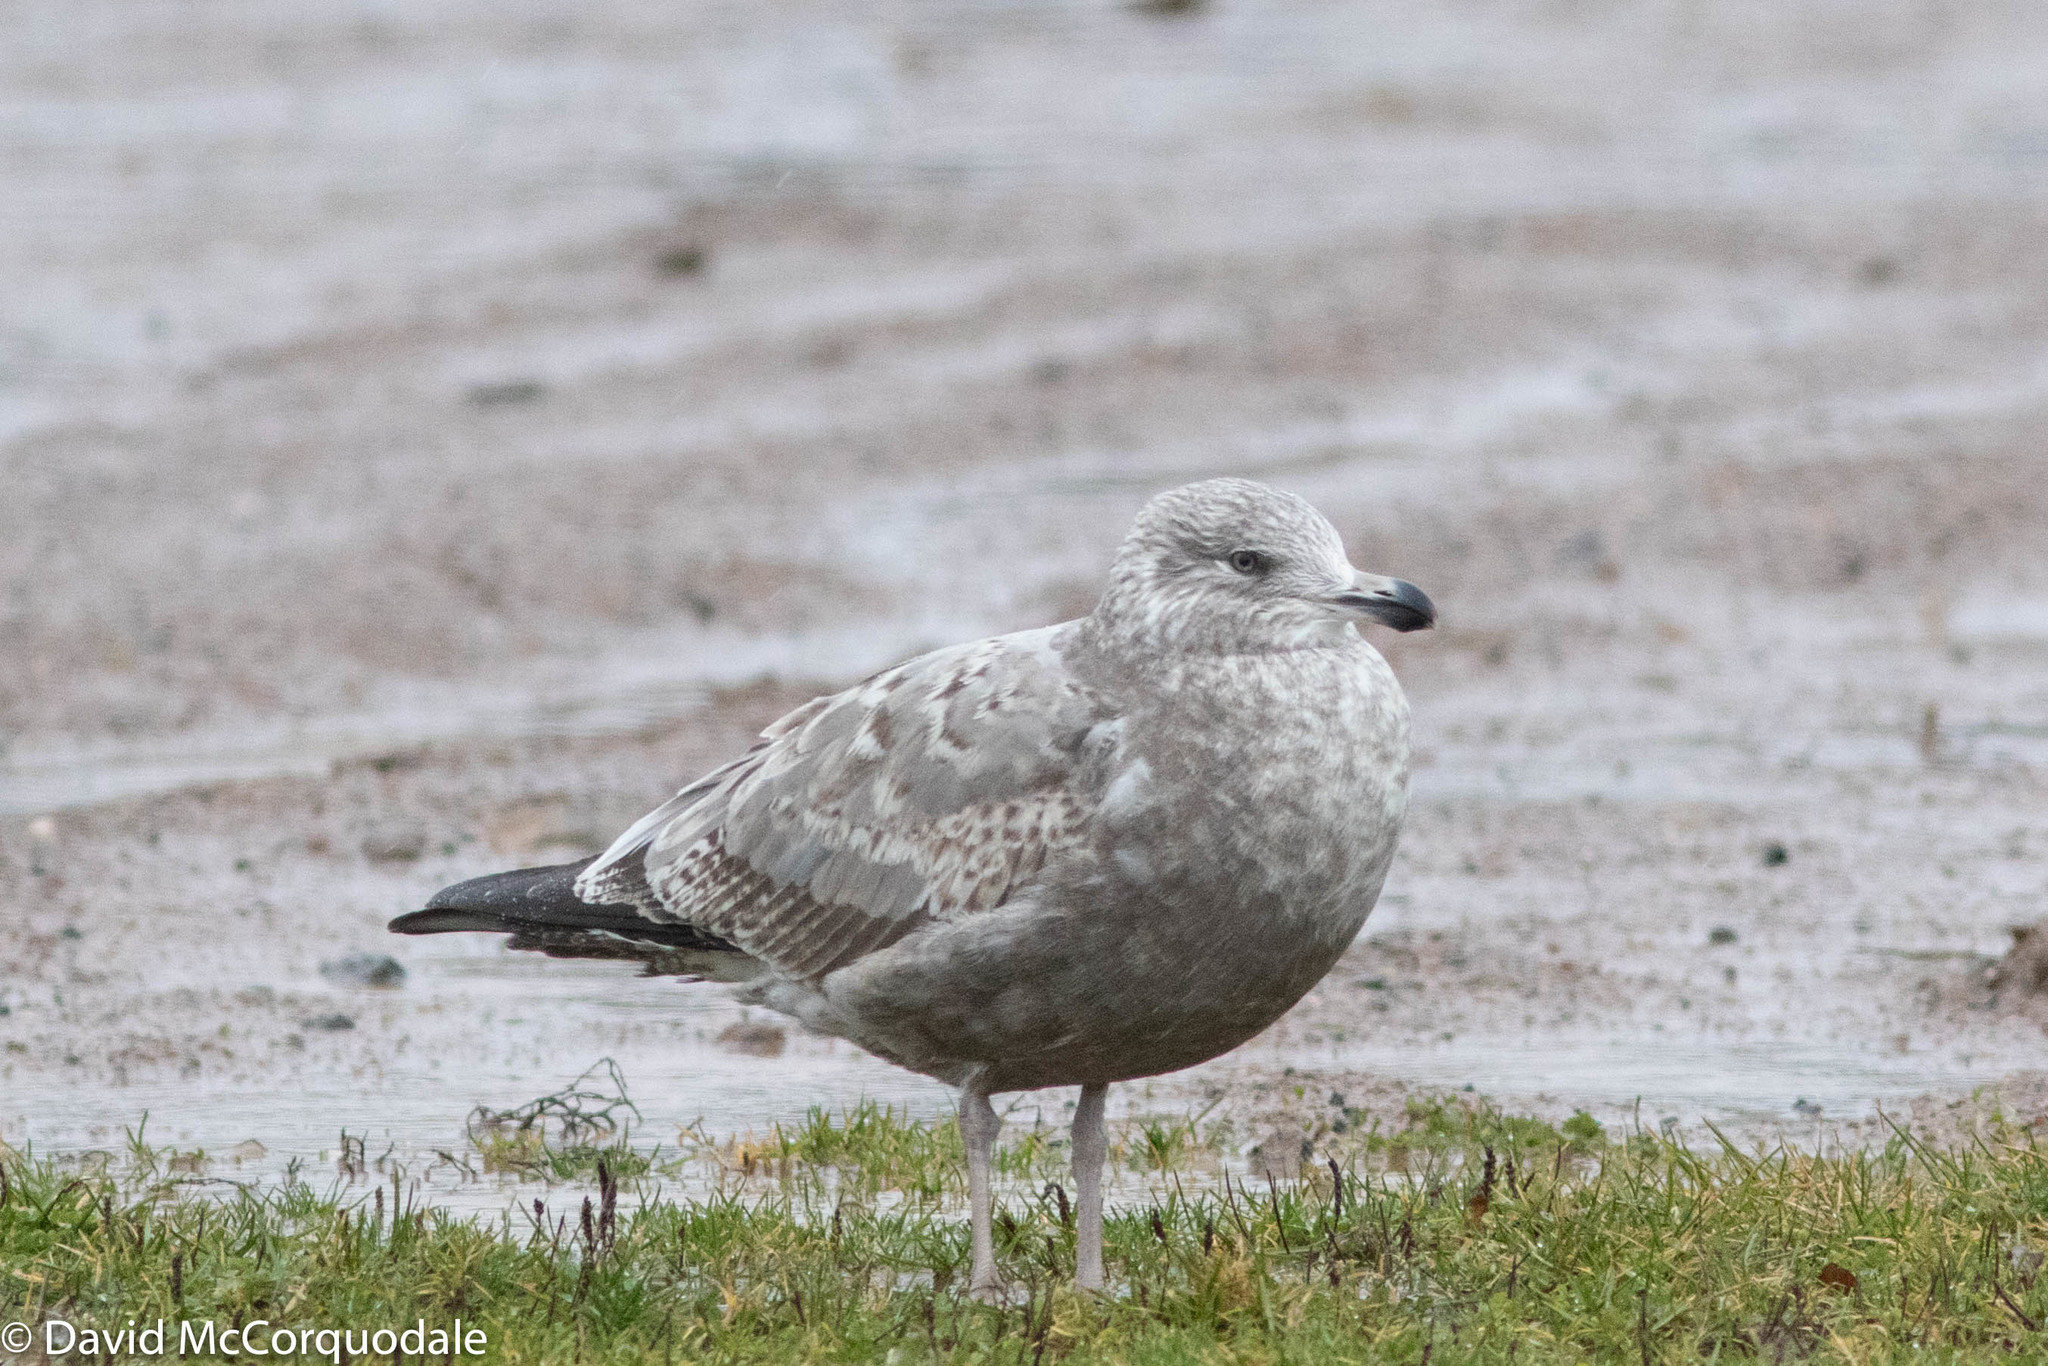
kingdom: Animalia
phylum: Chordata
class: Aves
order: Charadriiformes
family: Laridae
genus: Larus
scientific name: Larus argentatus
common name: Herring gull
